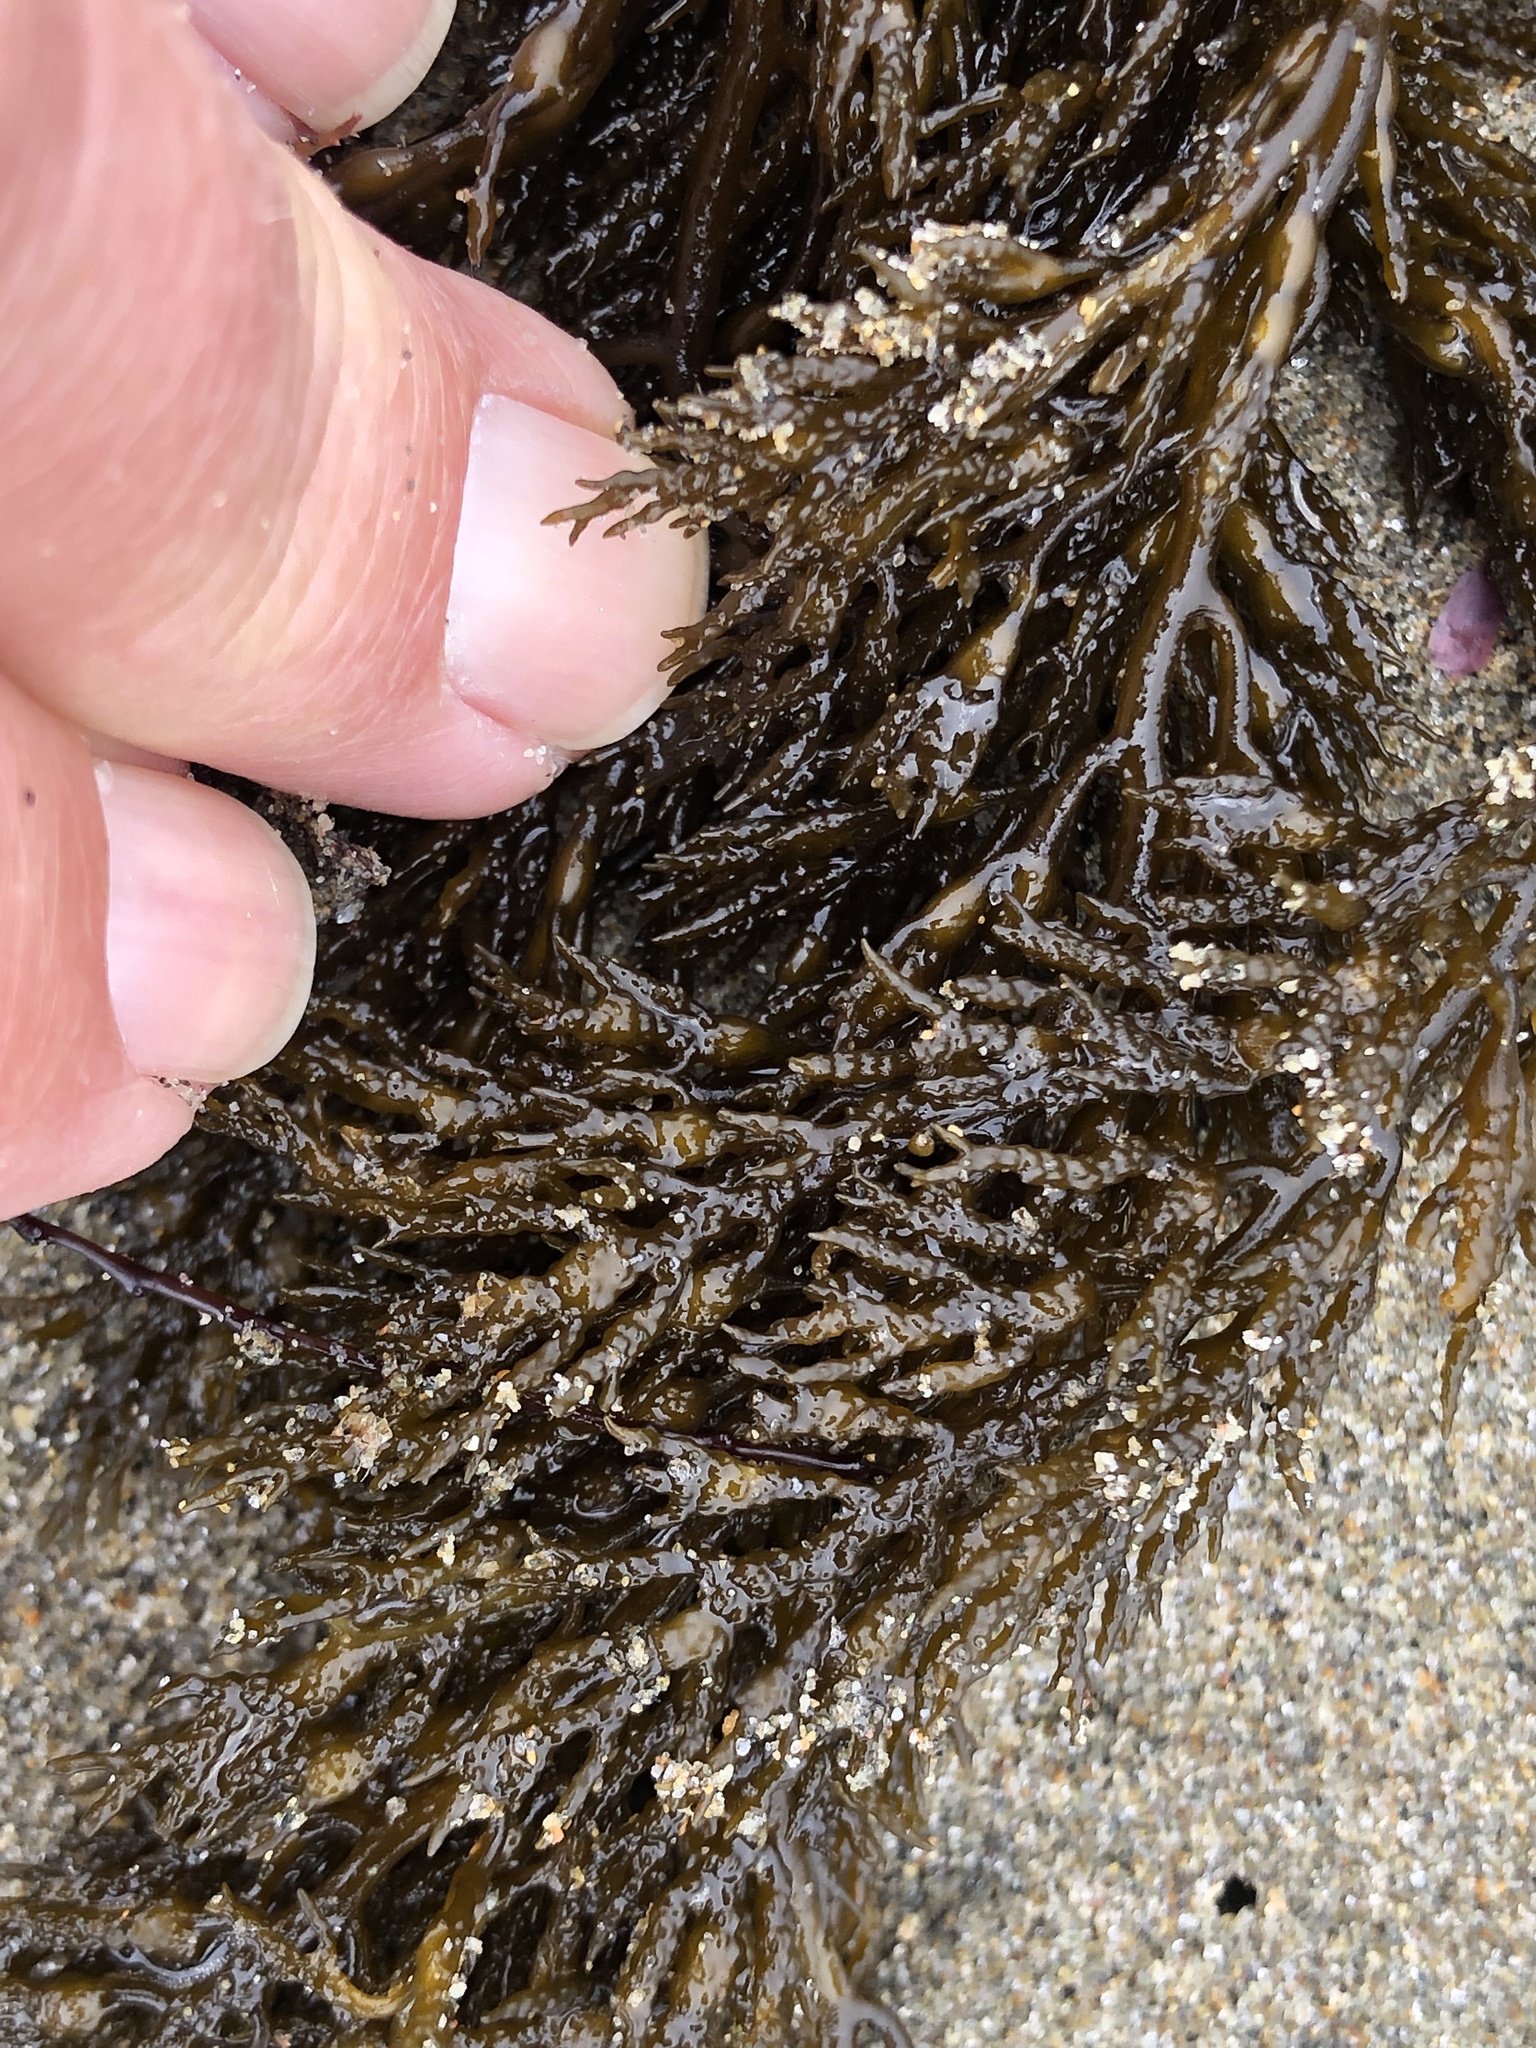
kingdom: Chromista
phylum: Ochrophyta
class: Phaeophyceae
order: Fucales
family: Sargassaceae
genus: Stephanocystis
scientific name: Stephanocystis
